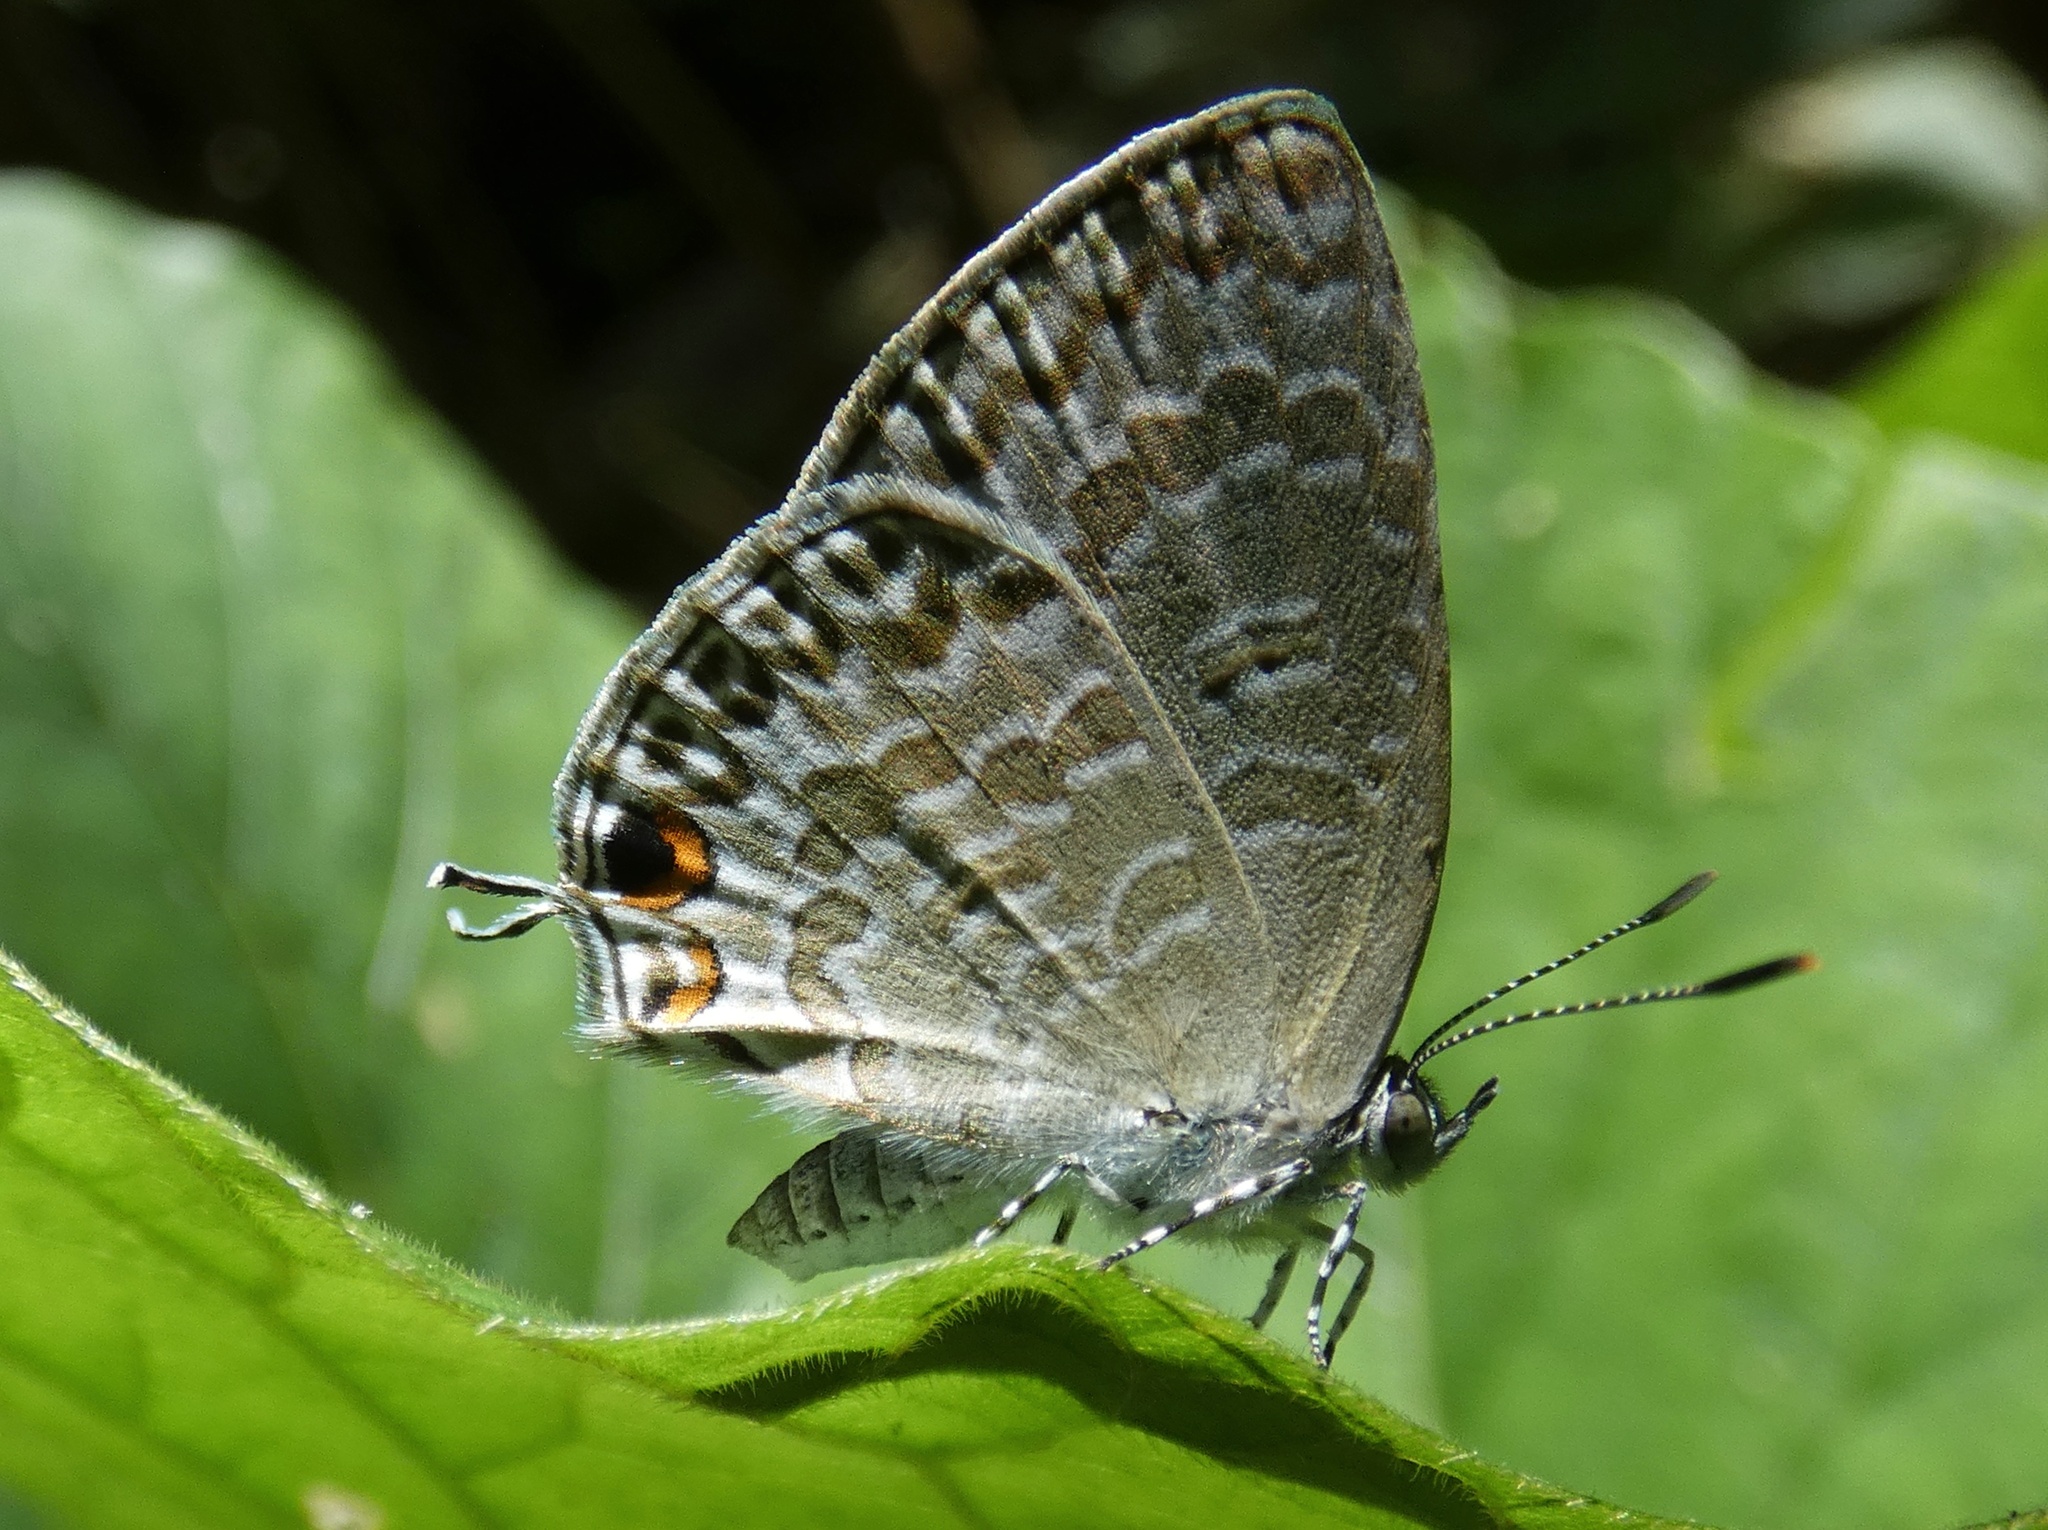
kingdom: Animalia
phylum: Arthropoda
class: Insecta
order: Lepidoptera
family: Lycaenidae
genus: Catopyrops
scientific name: Catopyrops ancyra
